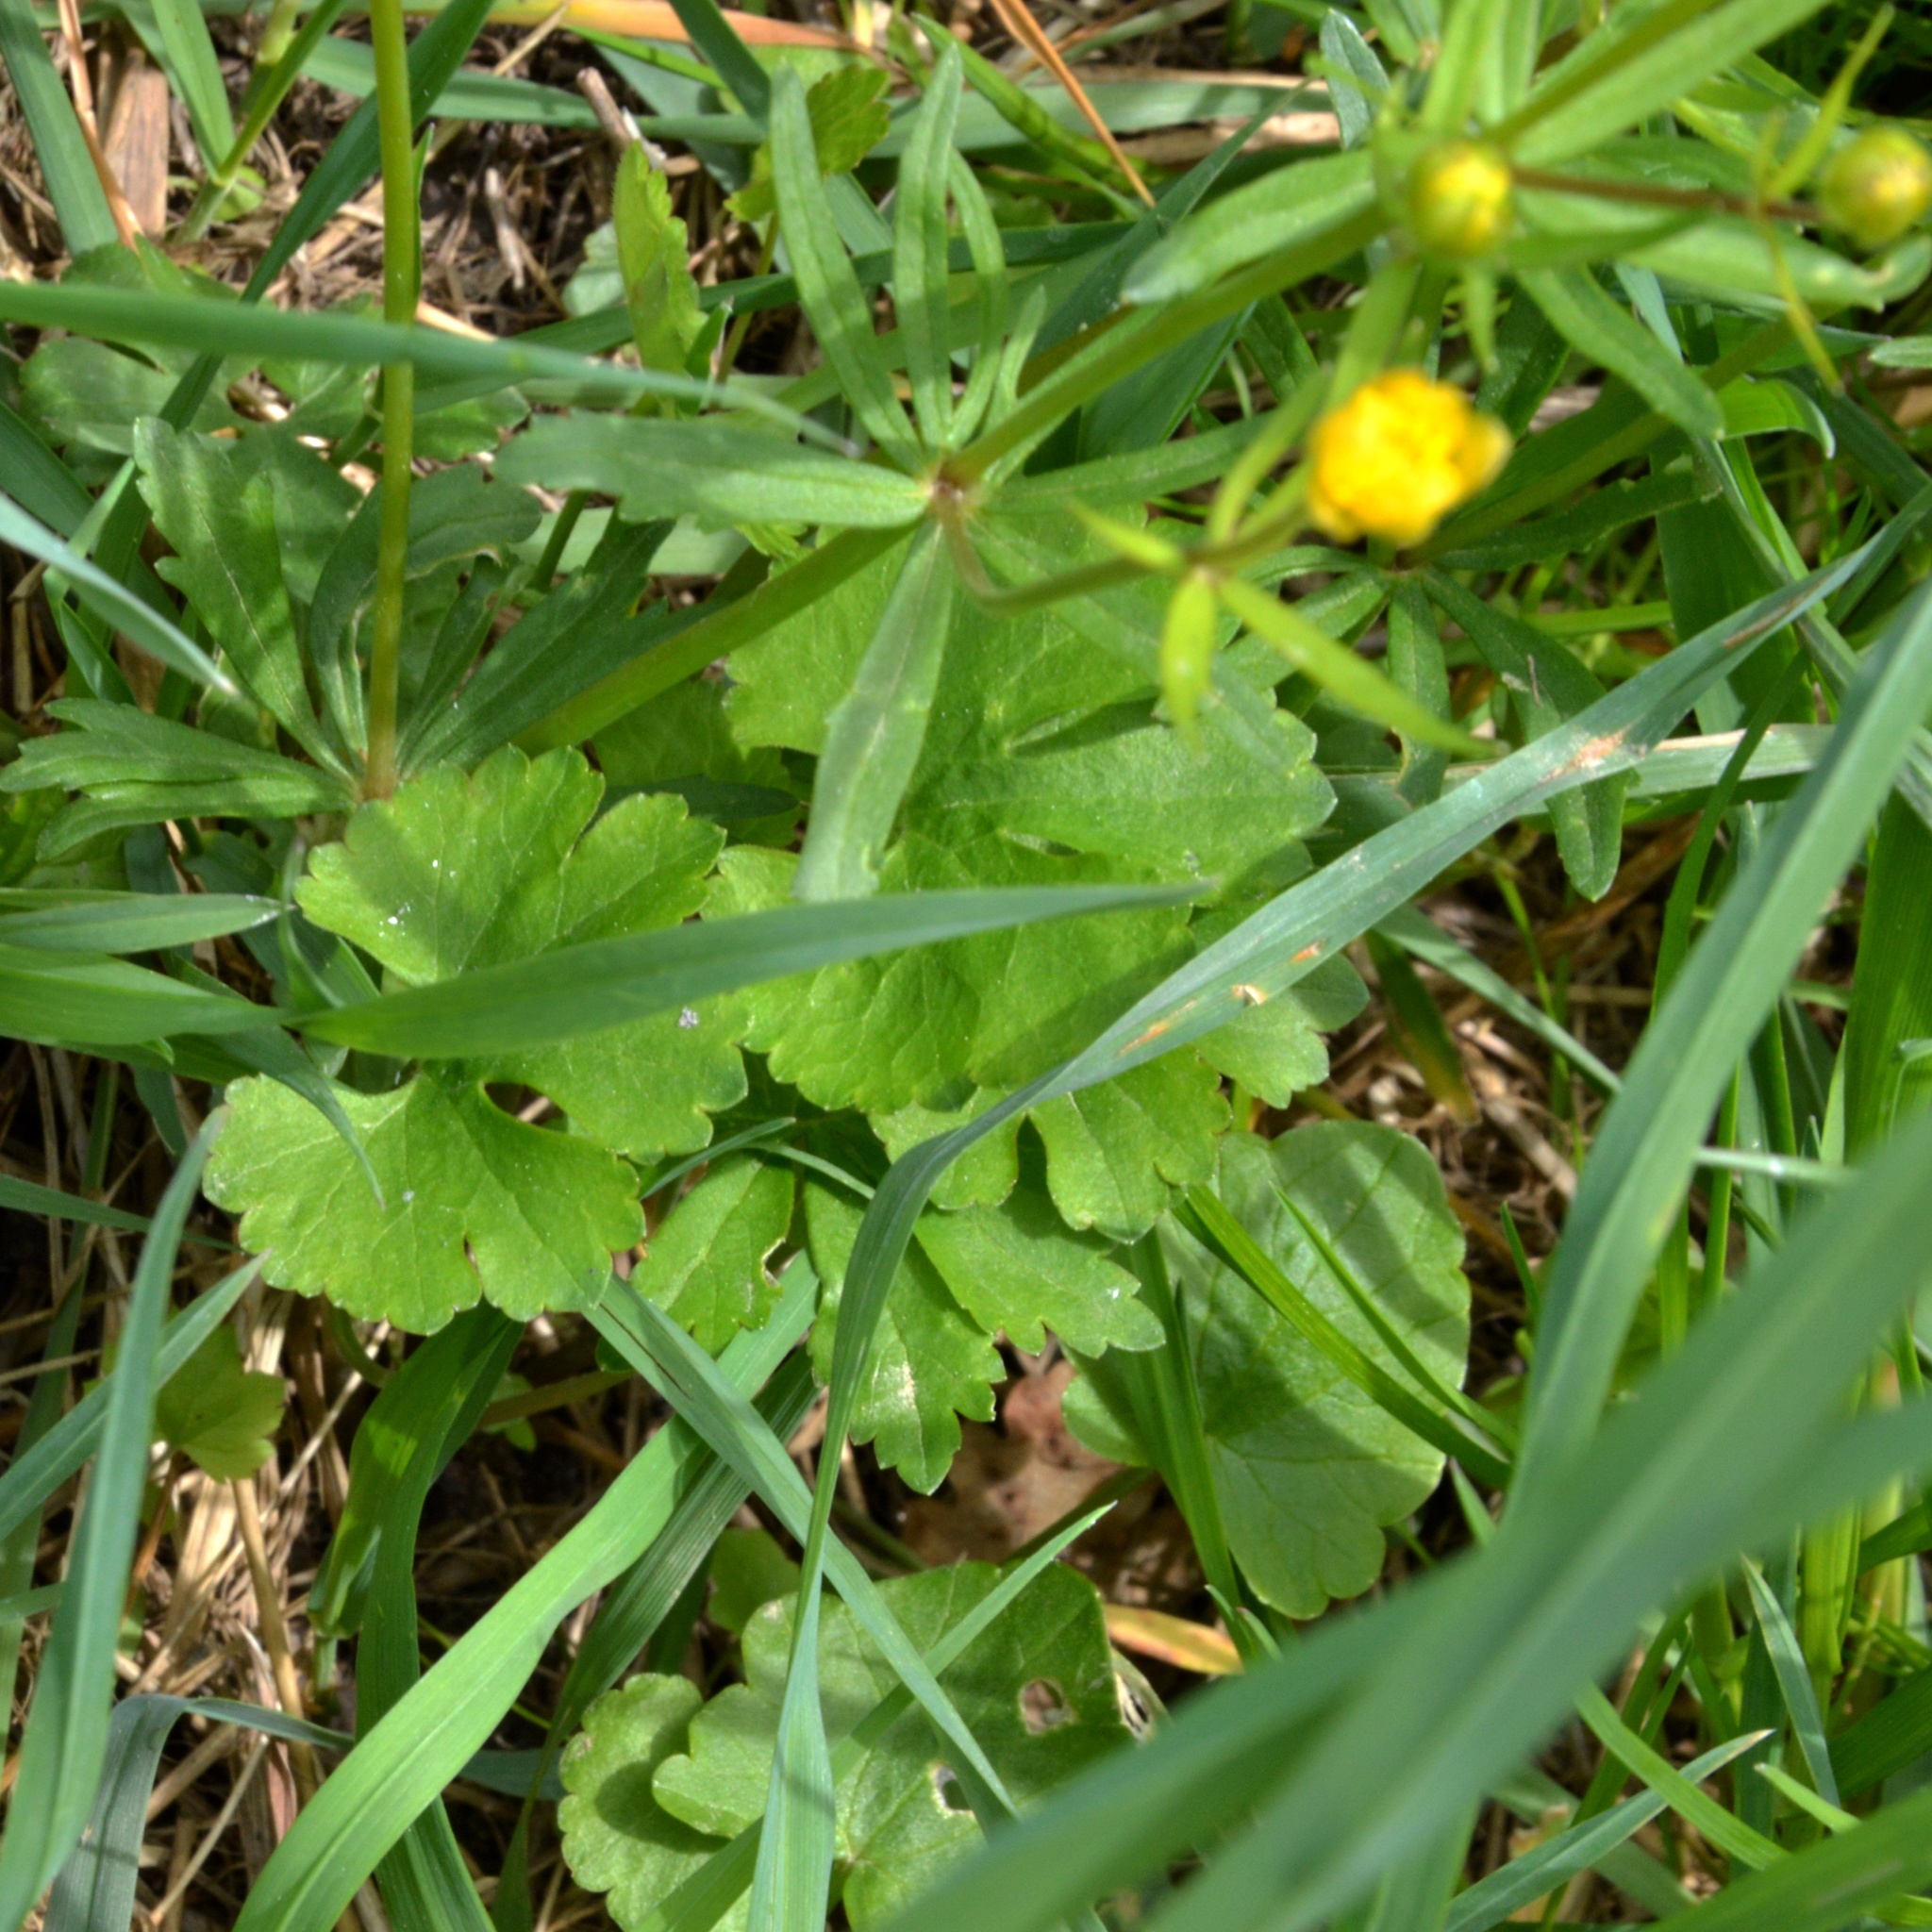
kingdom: Plantae
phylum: Tracheophyta
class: Magnoliopsida
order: Ranunculales
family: Ranunculaceae
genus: Ranunculus
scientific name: Ranunculus auricomus
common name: Goldilocks buttercup
